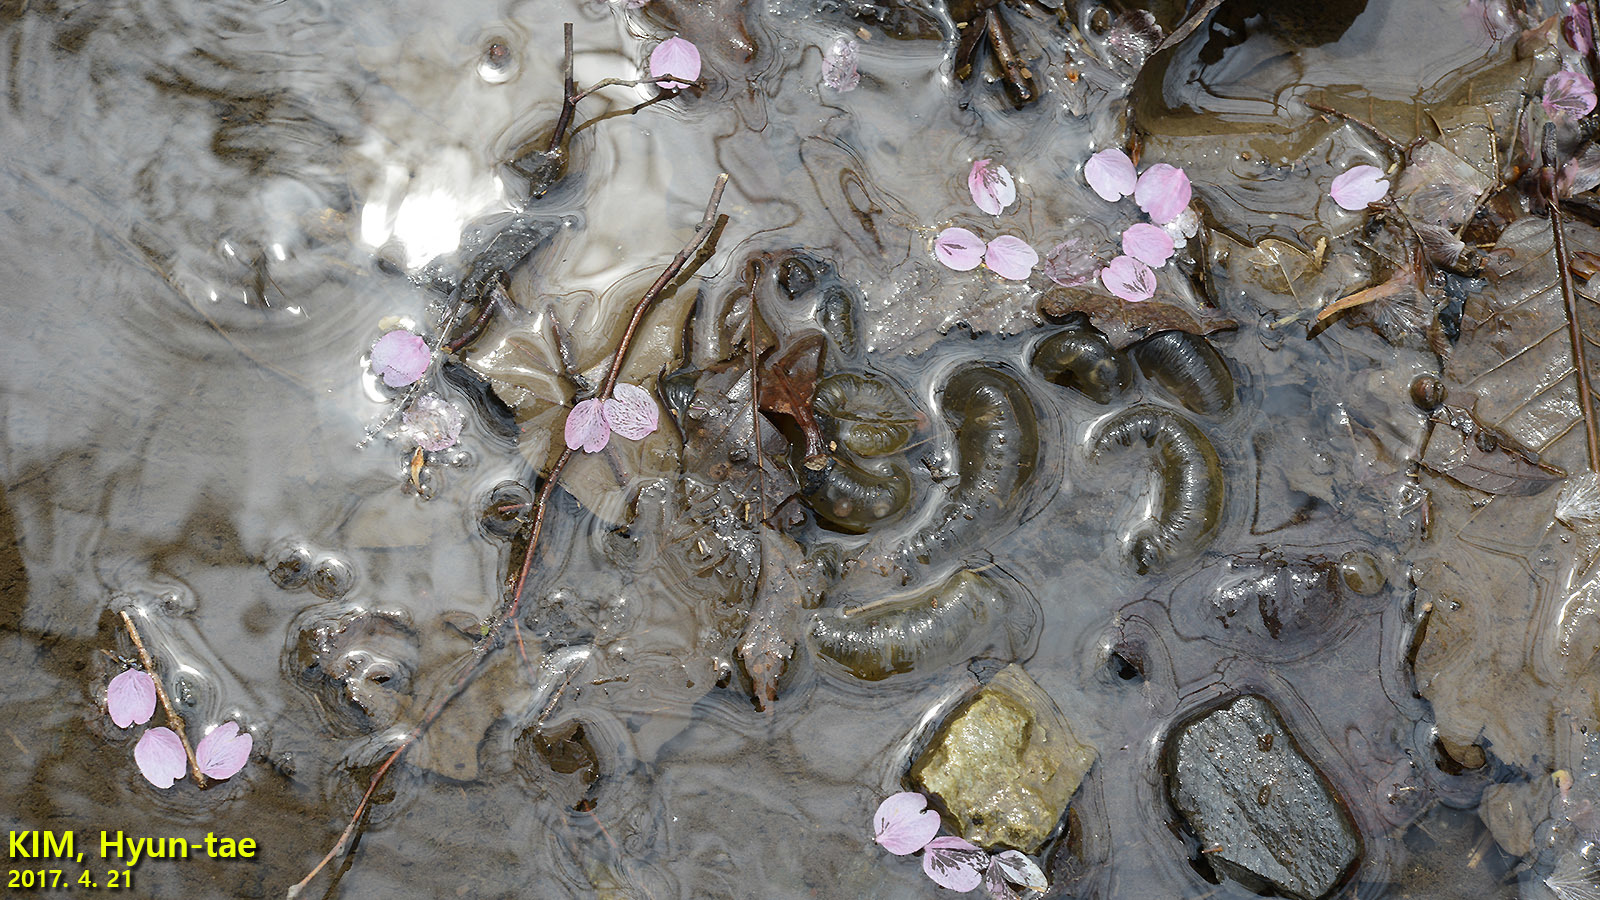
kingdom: Animalia
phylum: Chordata
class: Amphibia
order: Caudata
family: Hynobiidae
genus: Hynobius
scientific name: Hynobius leechii
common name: Gensan salamander
